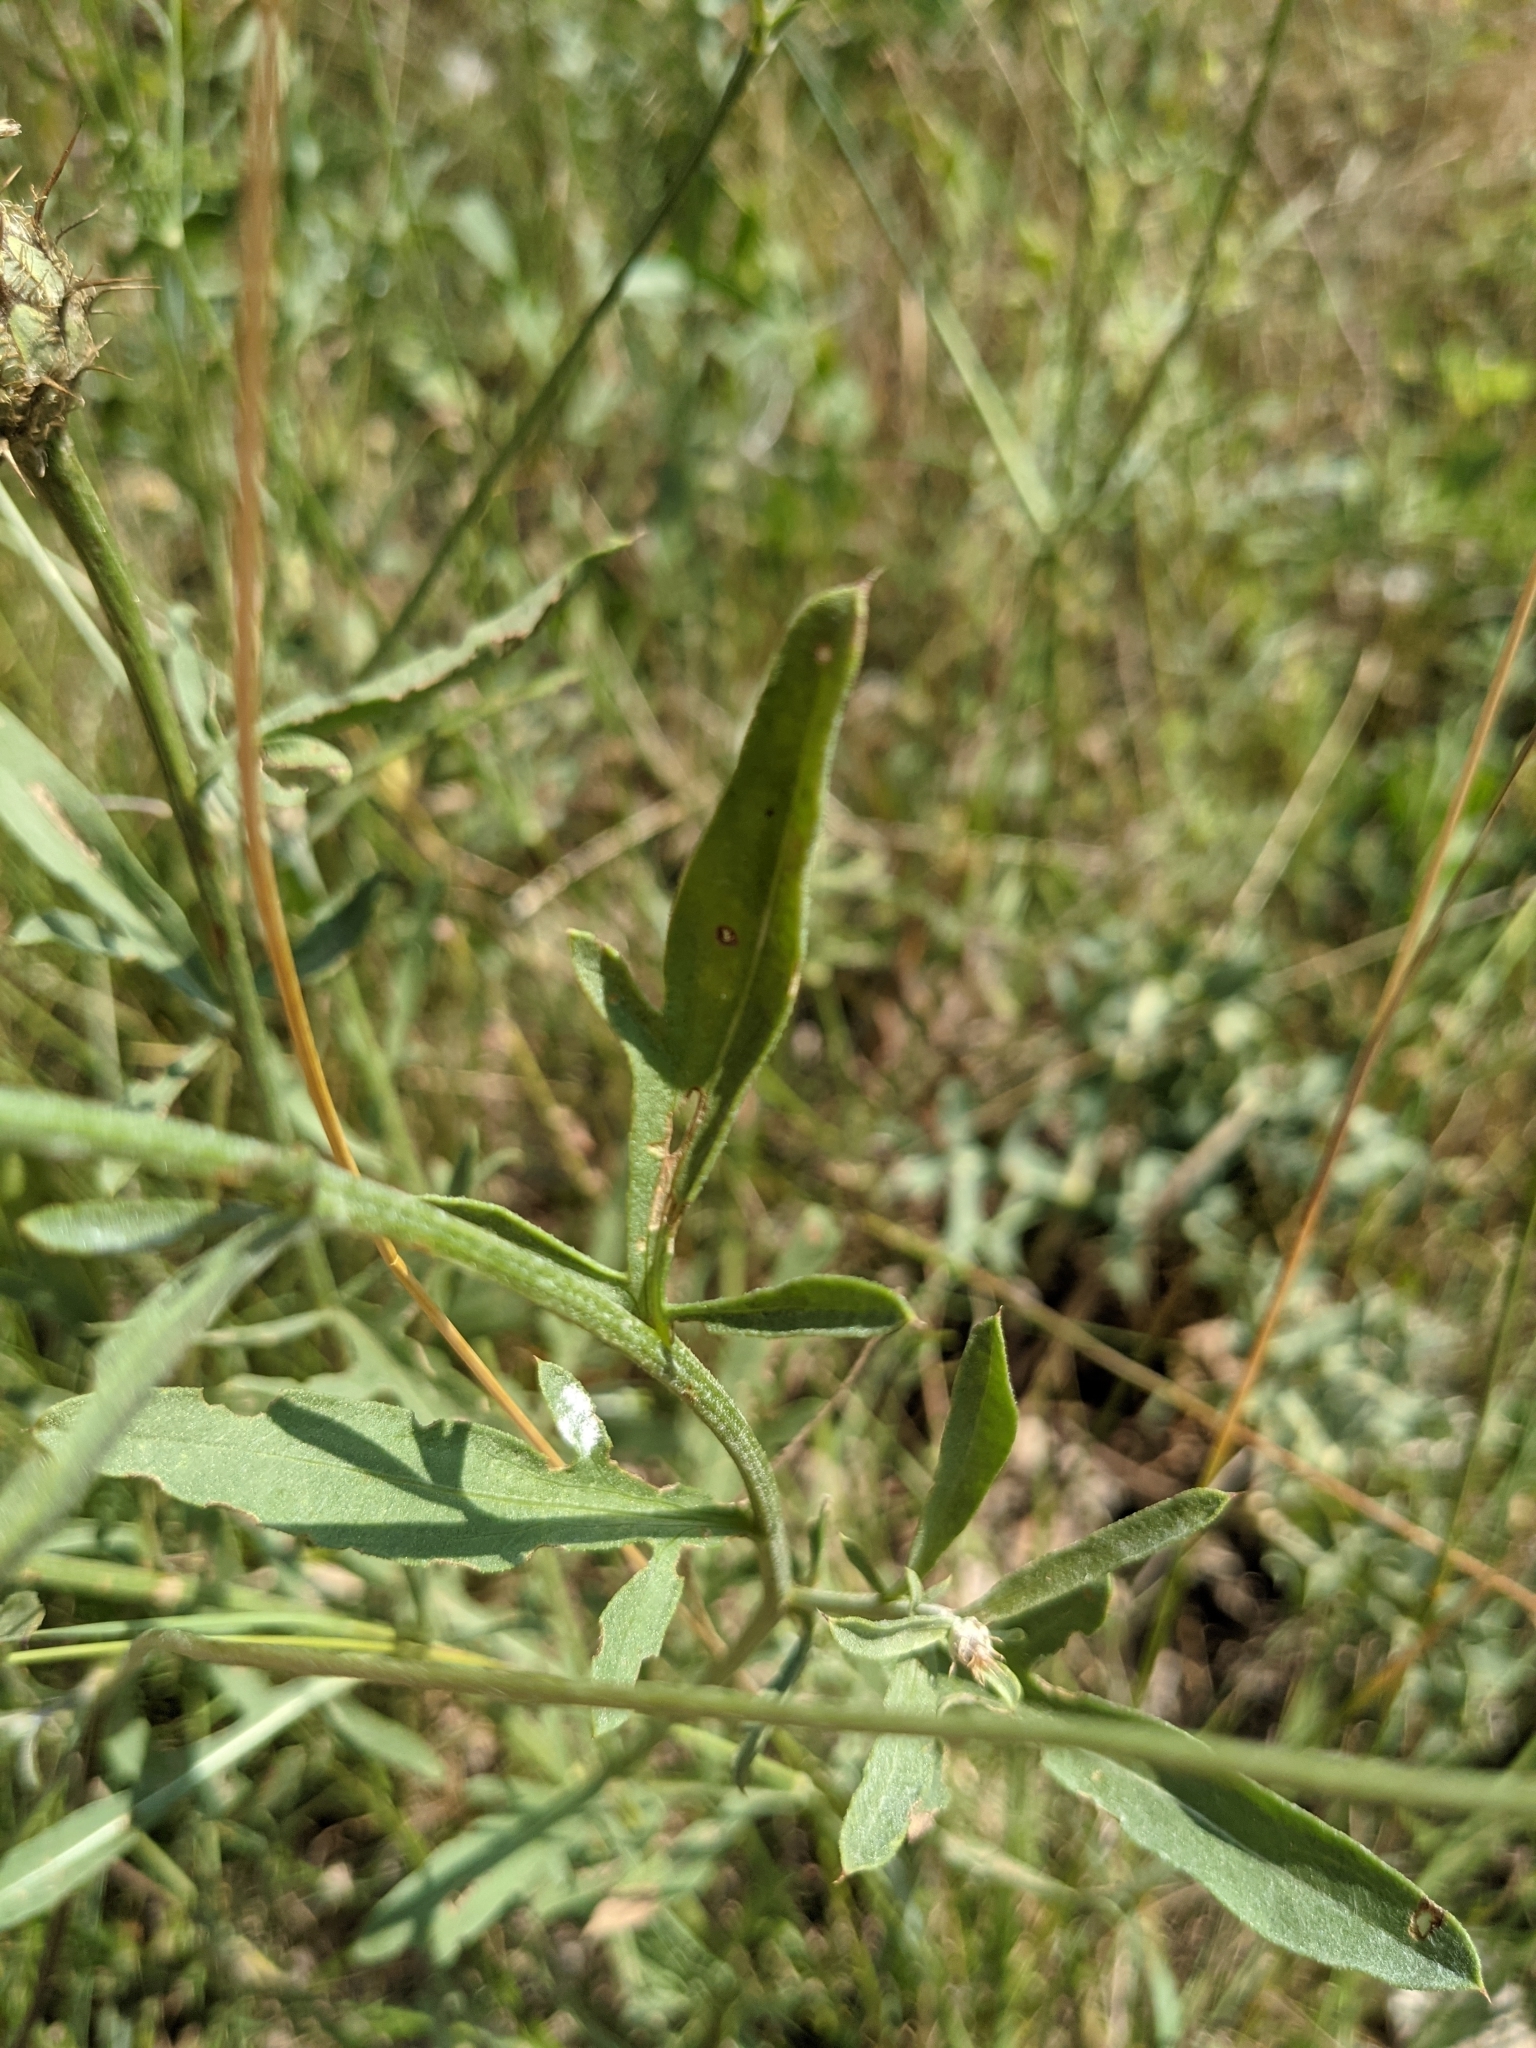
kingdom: Plantae
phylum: Tracheophyta
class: Magnoliopsida
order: Asterales
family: Asteraceae
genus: Centaurea
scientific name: Centaurea collina
